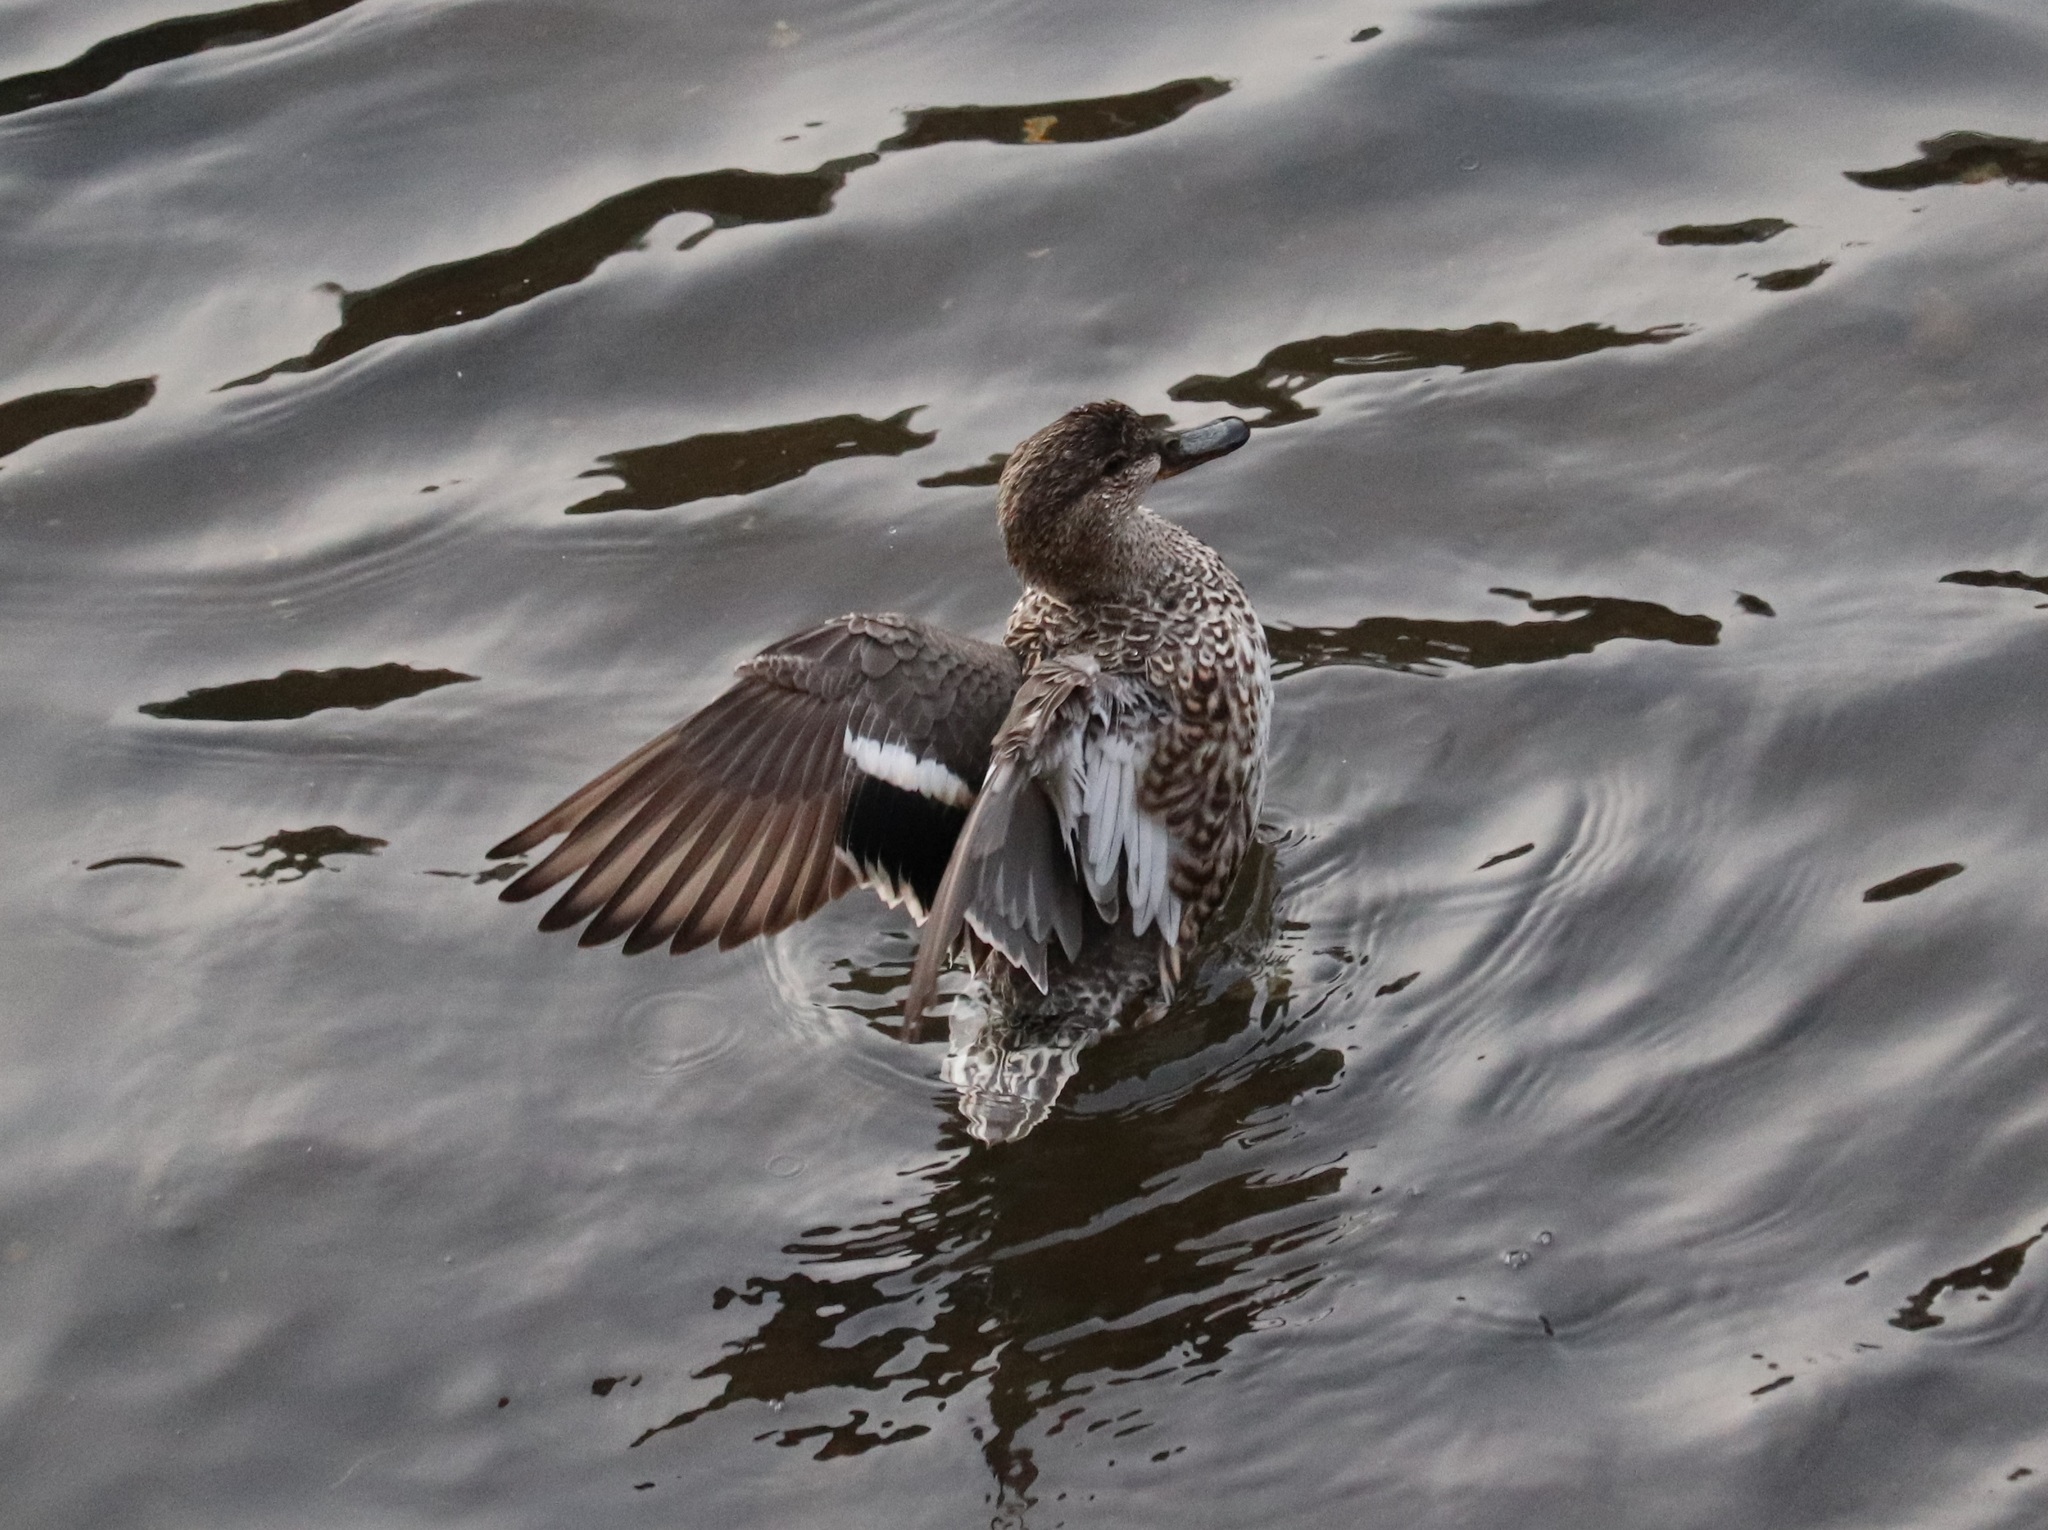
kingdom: Animalia
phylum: Chordata
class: Aves
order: Anseriformes
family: Anatidae
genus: Anas
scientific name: Anas crecca
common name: Eurasian teal
